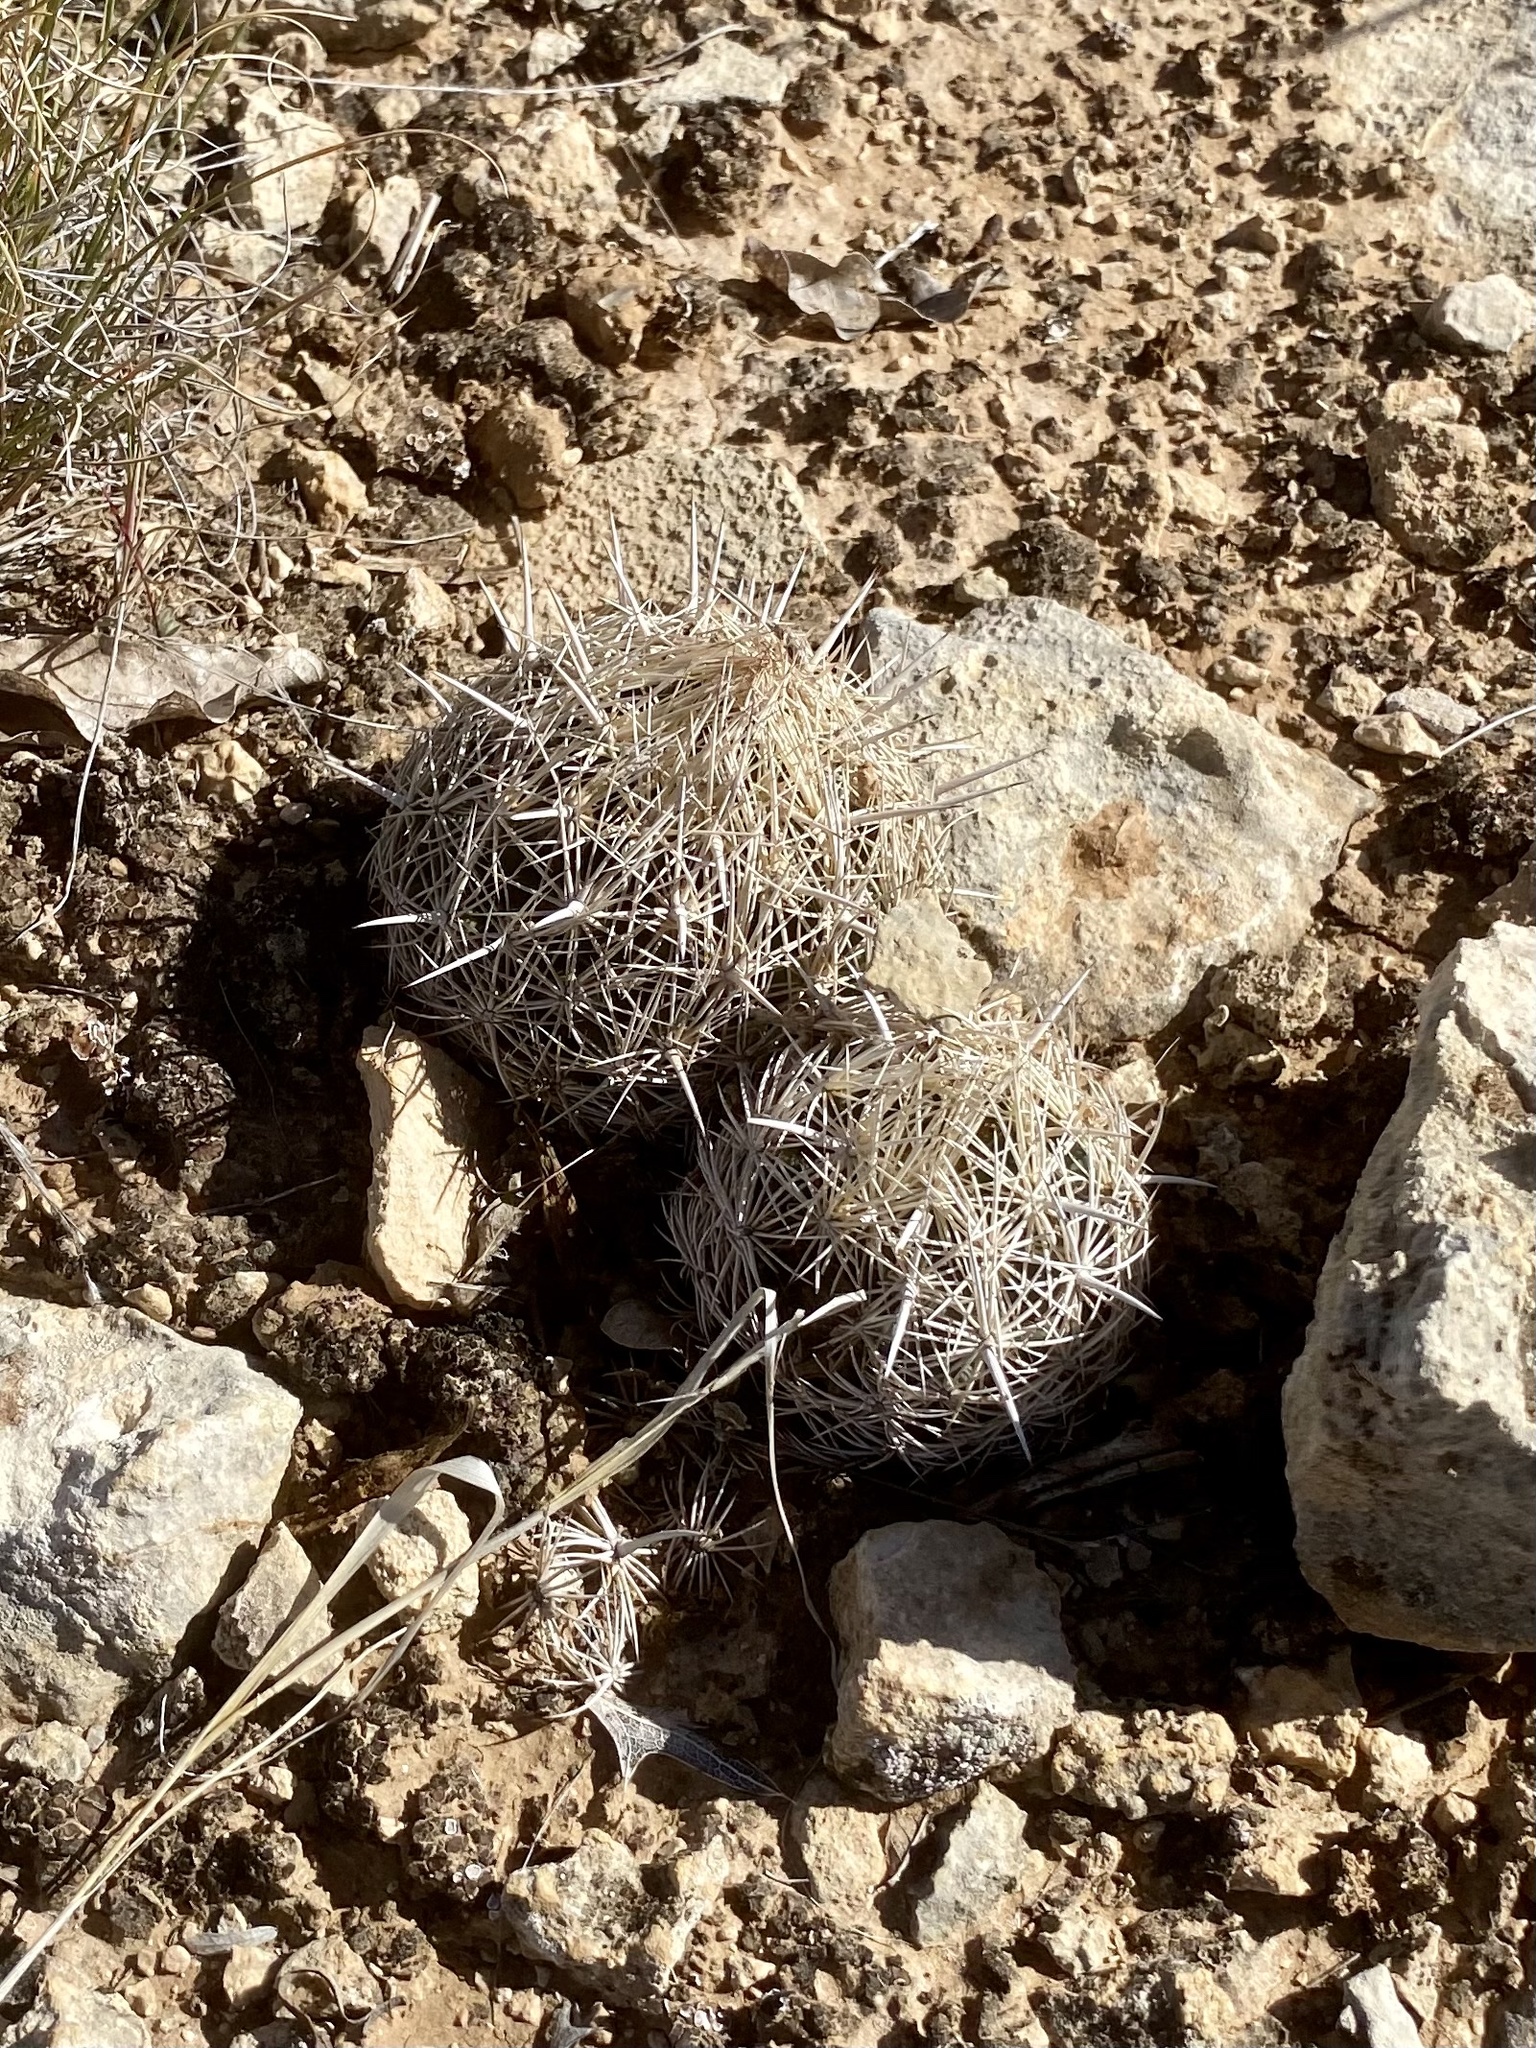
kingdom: Plantae
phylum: Tracheophyta
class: Magnoliopsida
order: Caryophyllales
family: Cactaceae
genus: Coryphantha
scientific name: Coryphantha echinus
